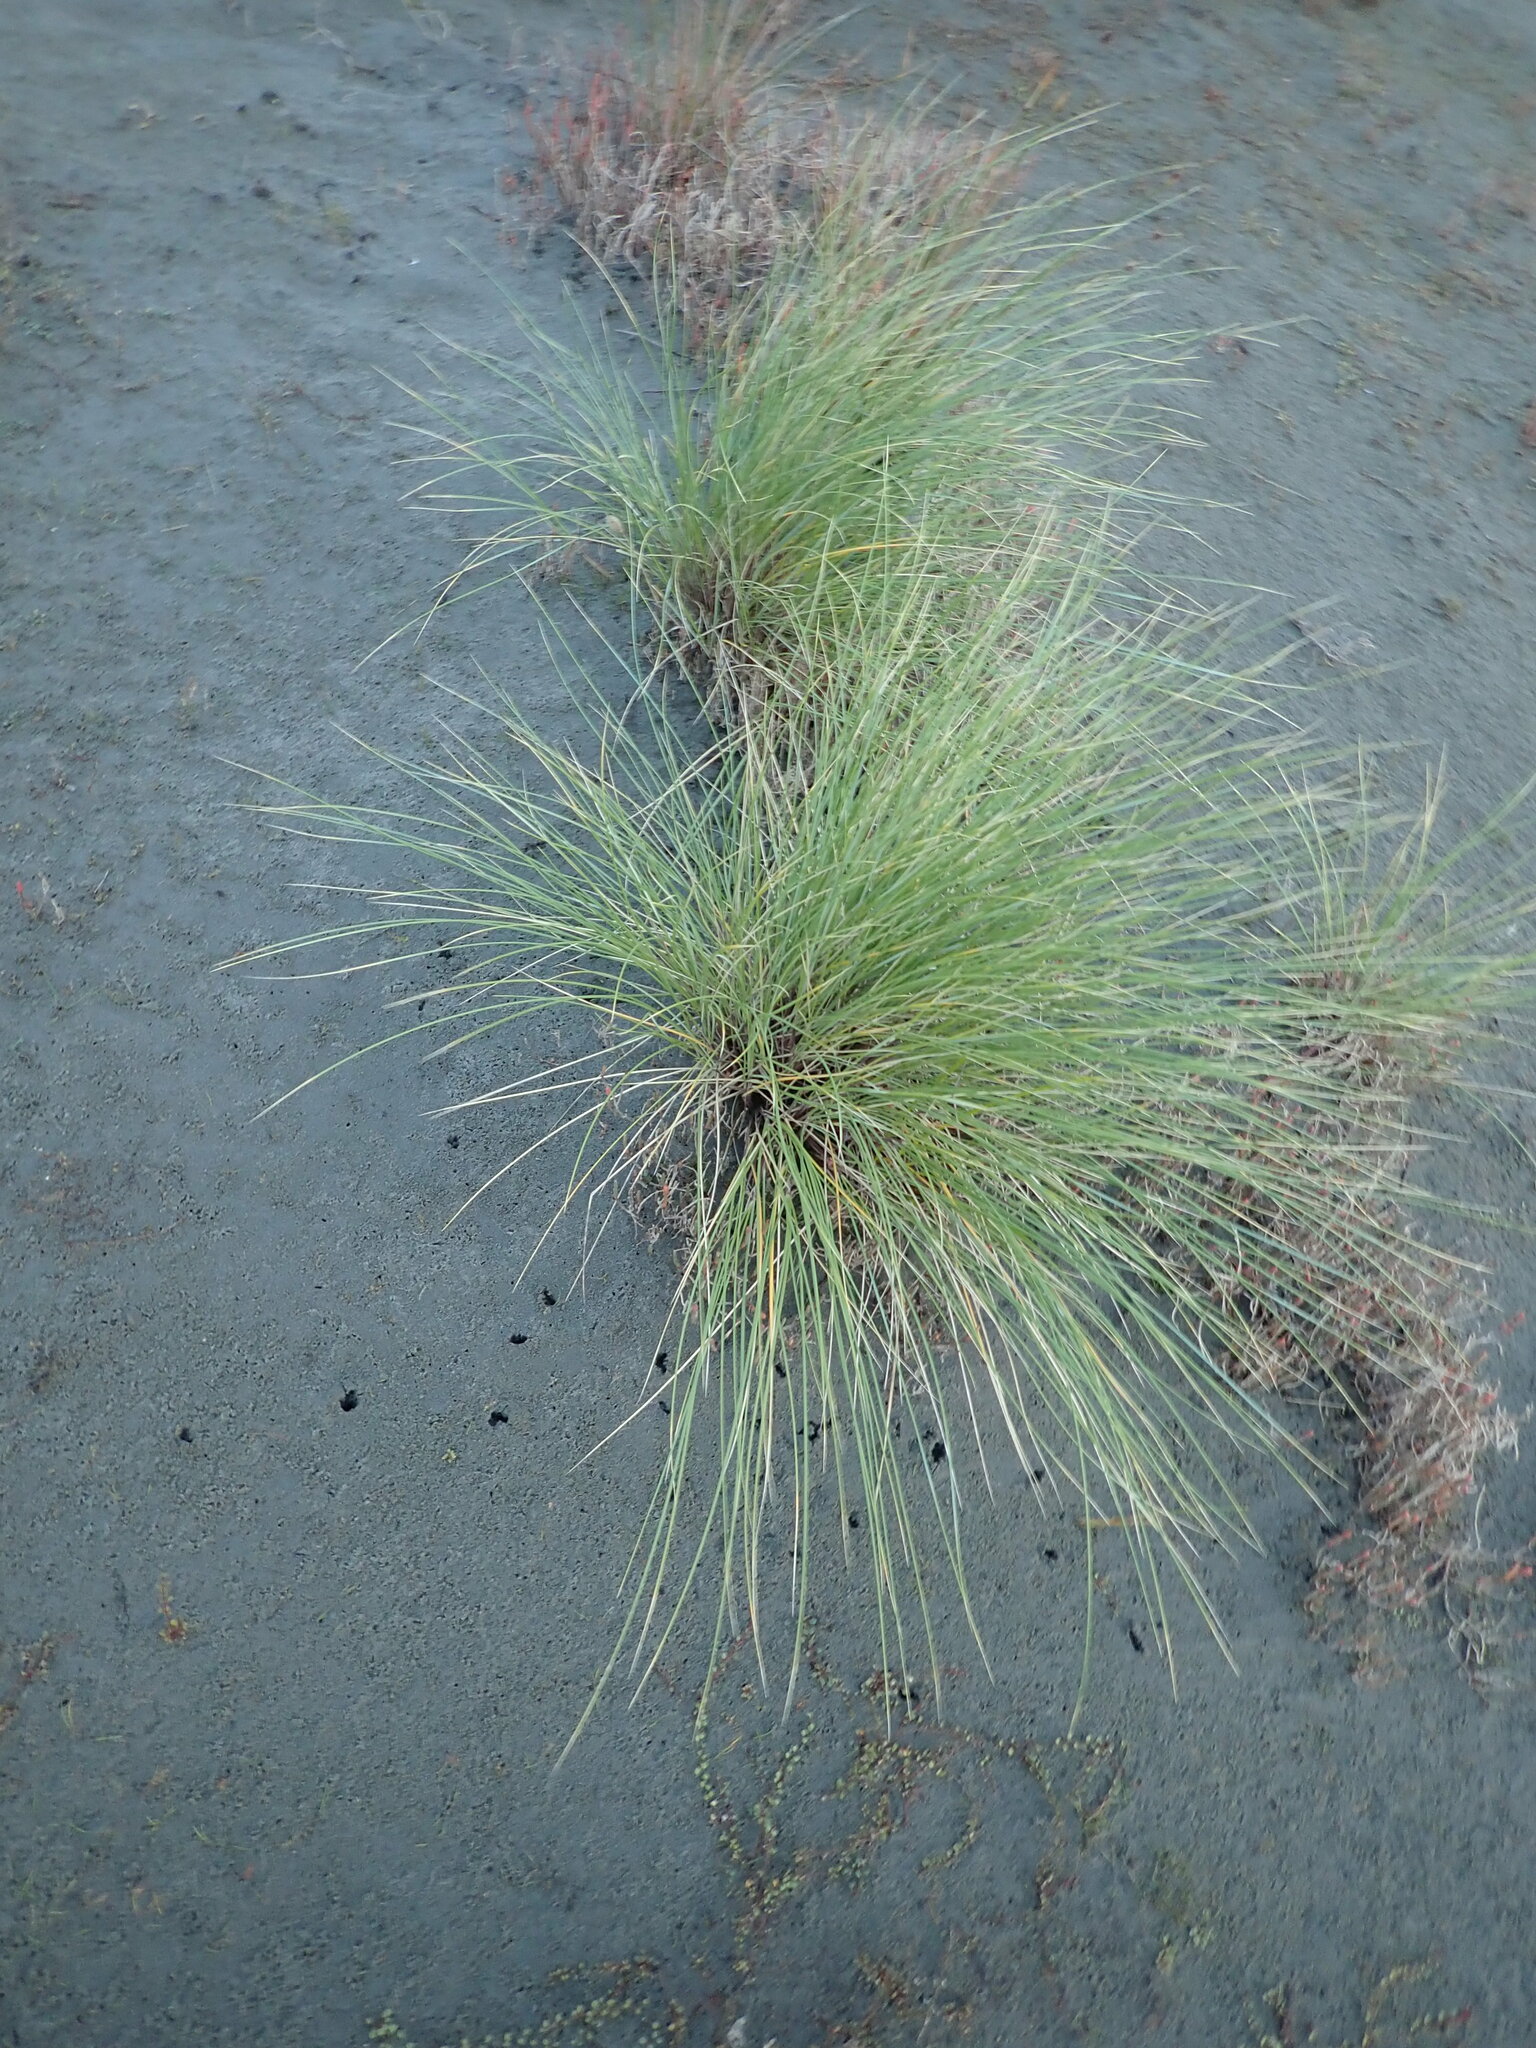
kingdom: Plantae
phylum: Tracheophyta
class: Liliopsida
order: Poales
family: Poaceae
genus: Calamagrostis
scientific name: Calamagrostis arenaria
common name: European beachgrass
